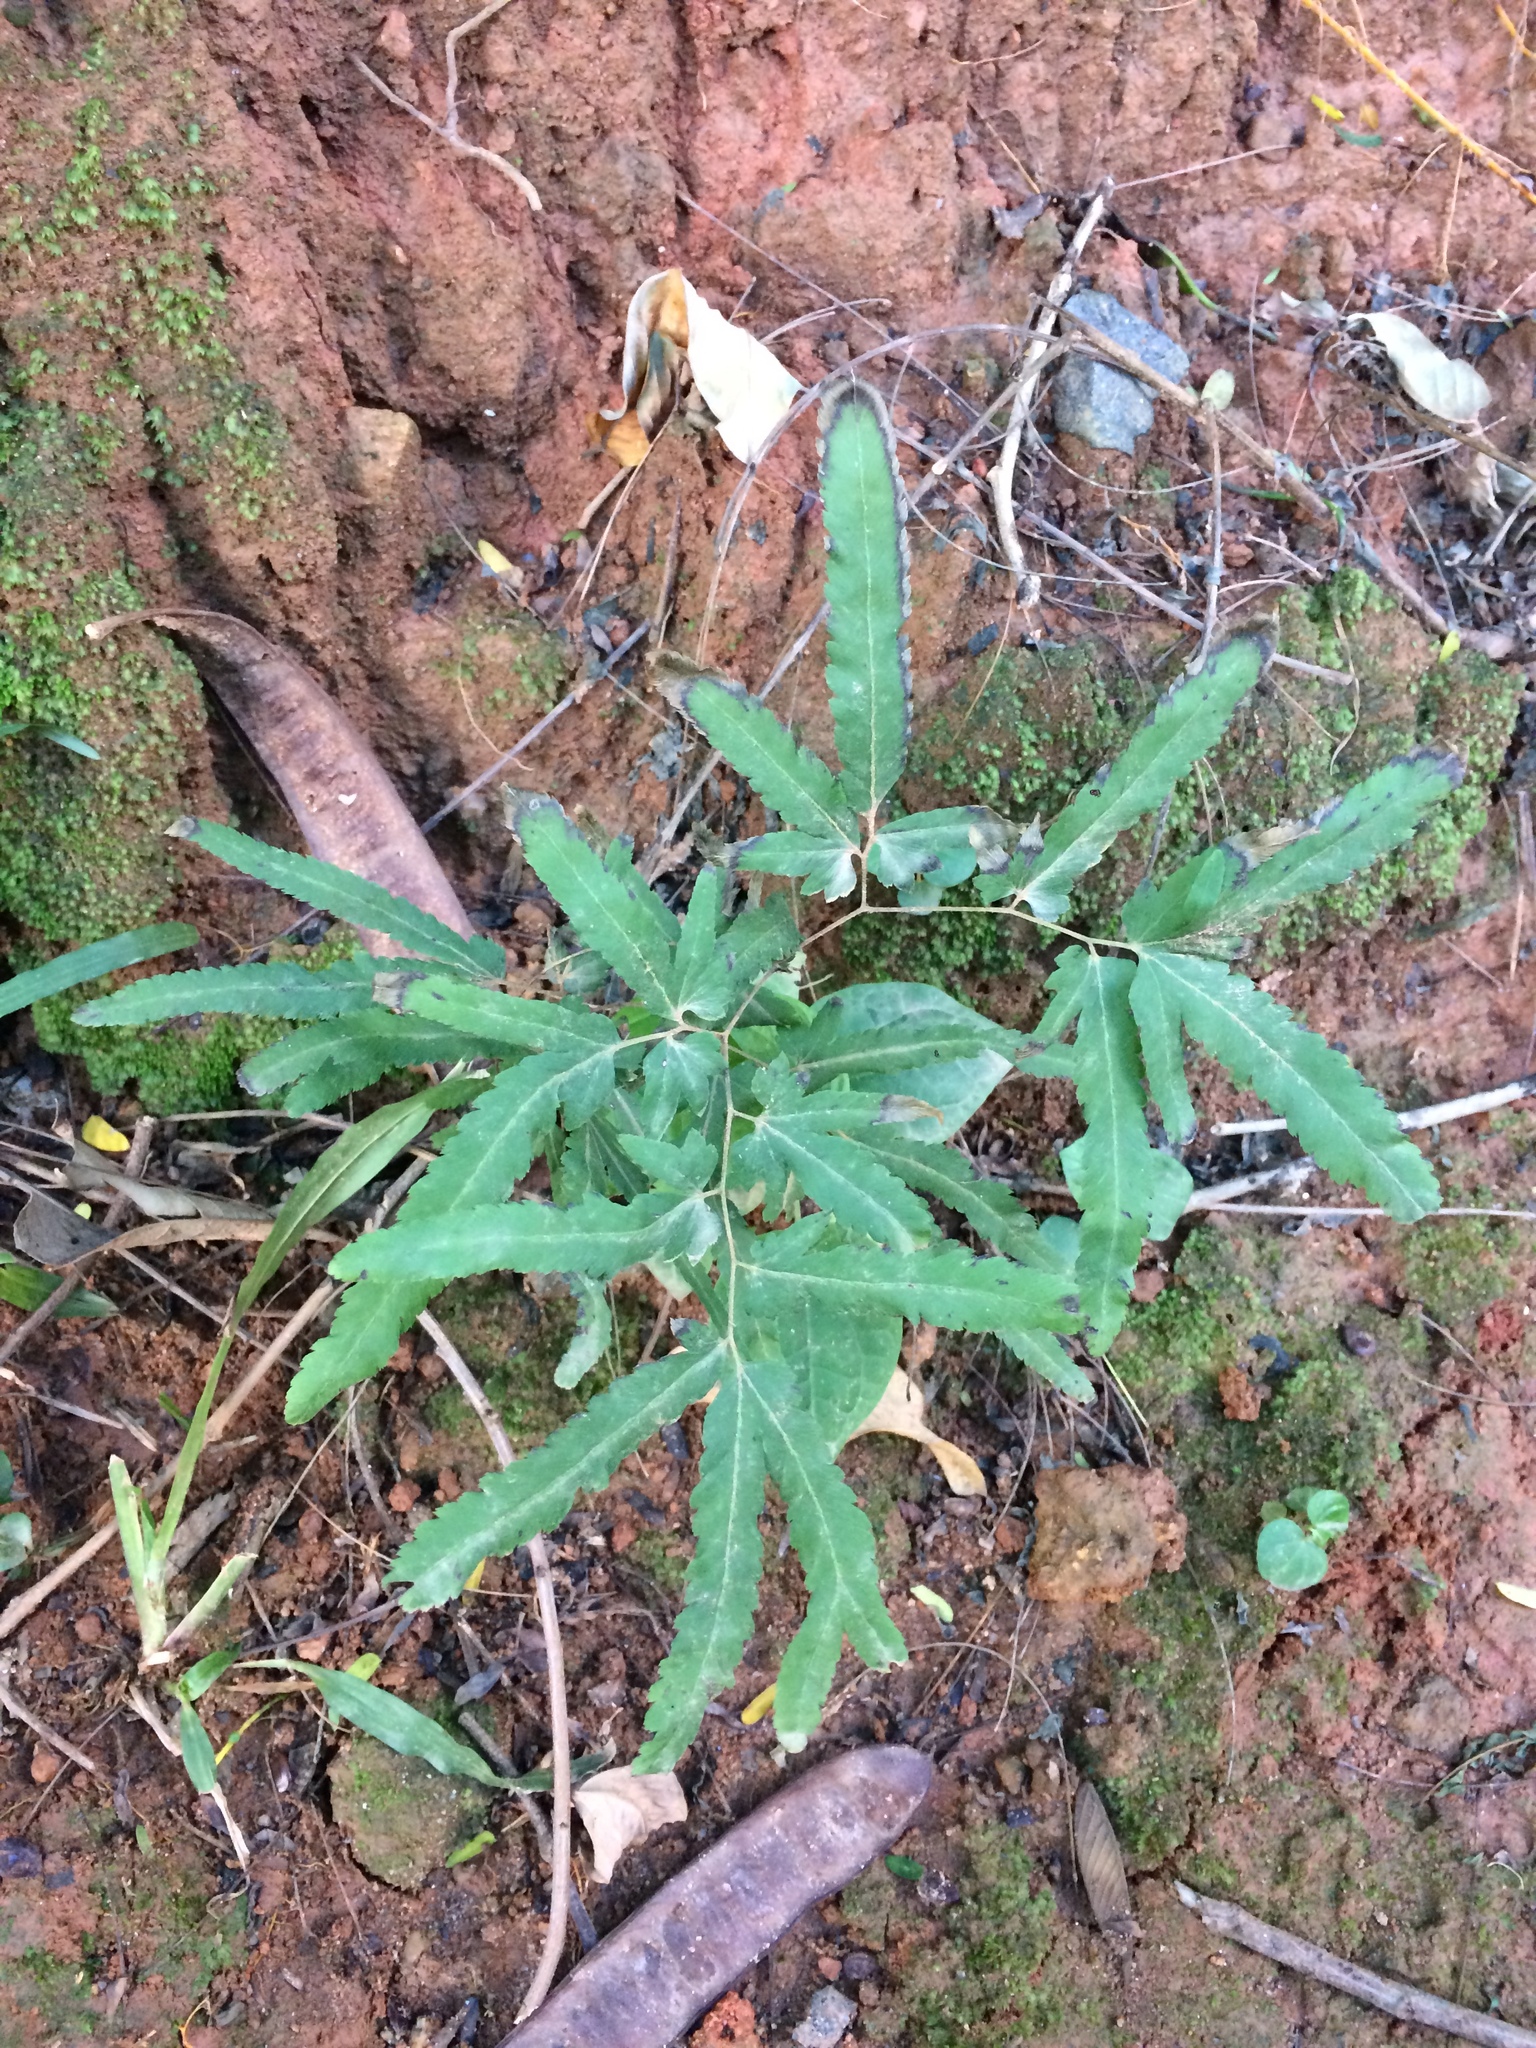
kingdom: Plantae
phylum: Tracheophyta
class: Polypodiopsida
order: Schizaeales
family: Lygodiaceae
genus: Lygodium
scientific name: Lygodium venustum
